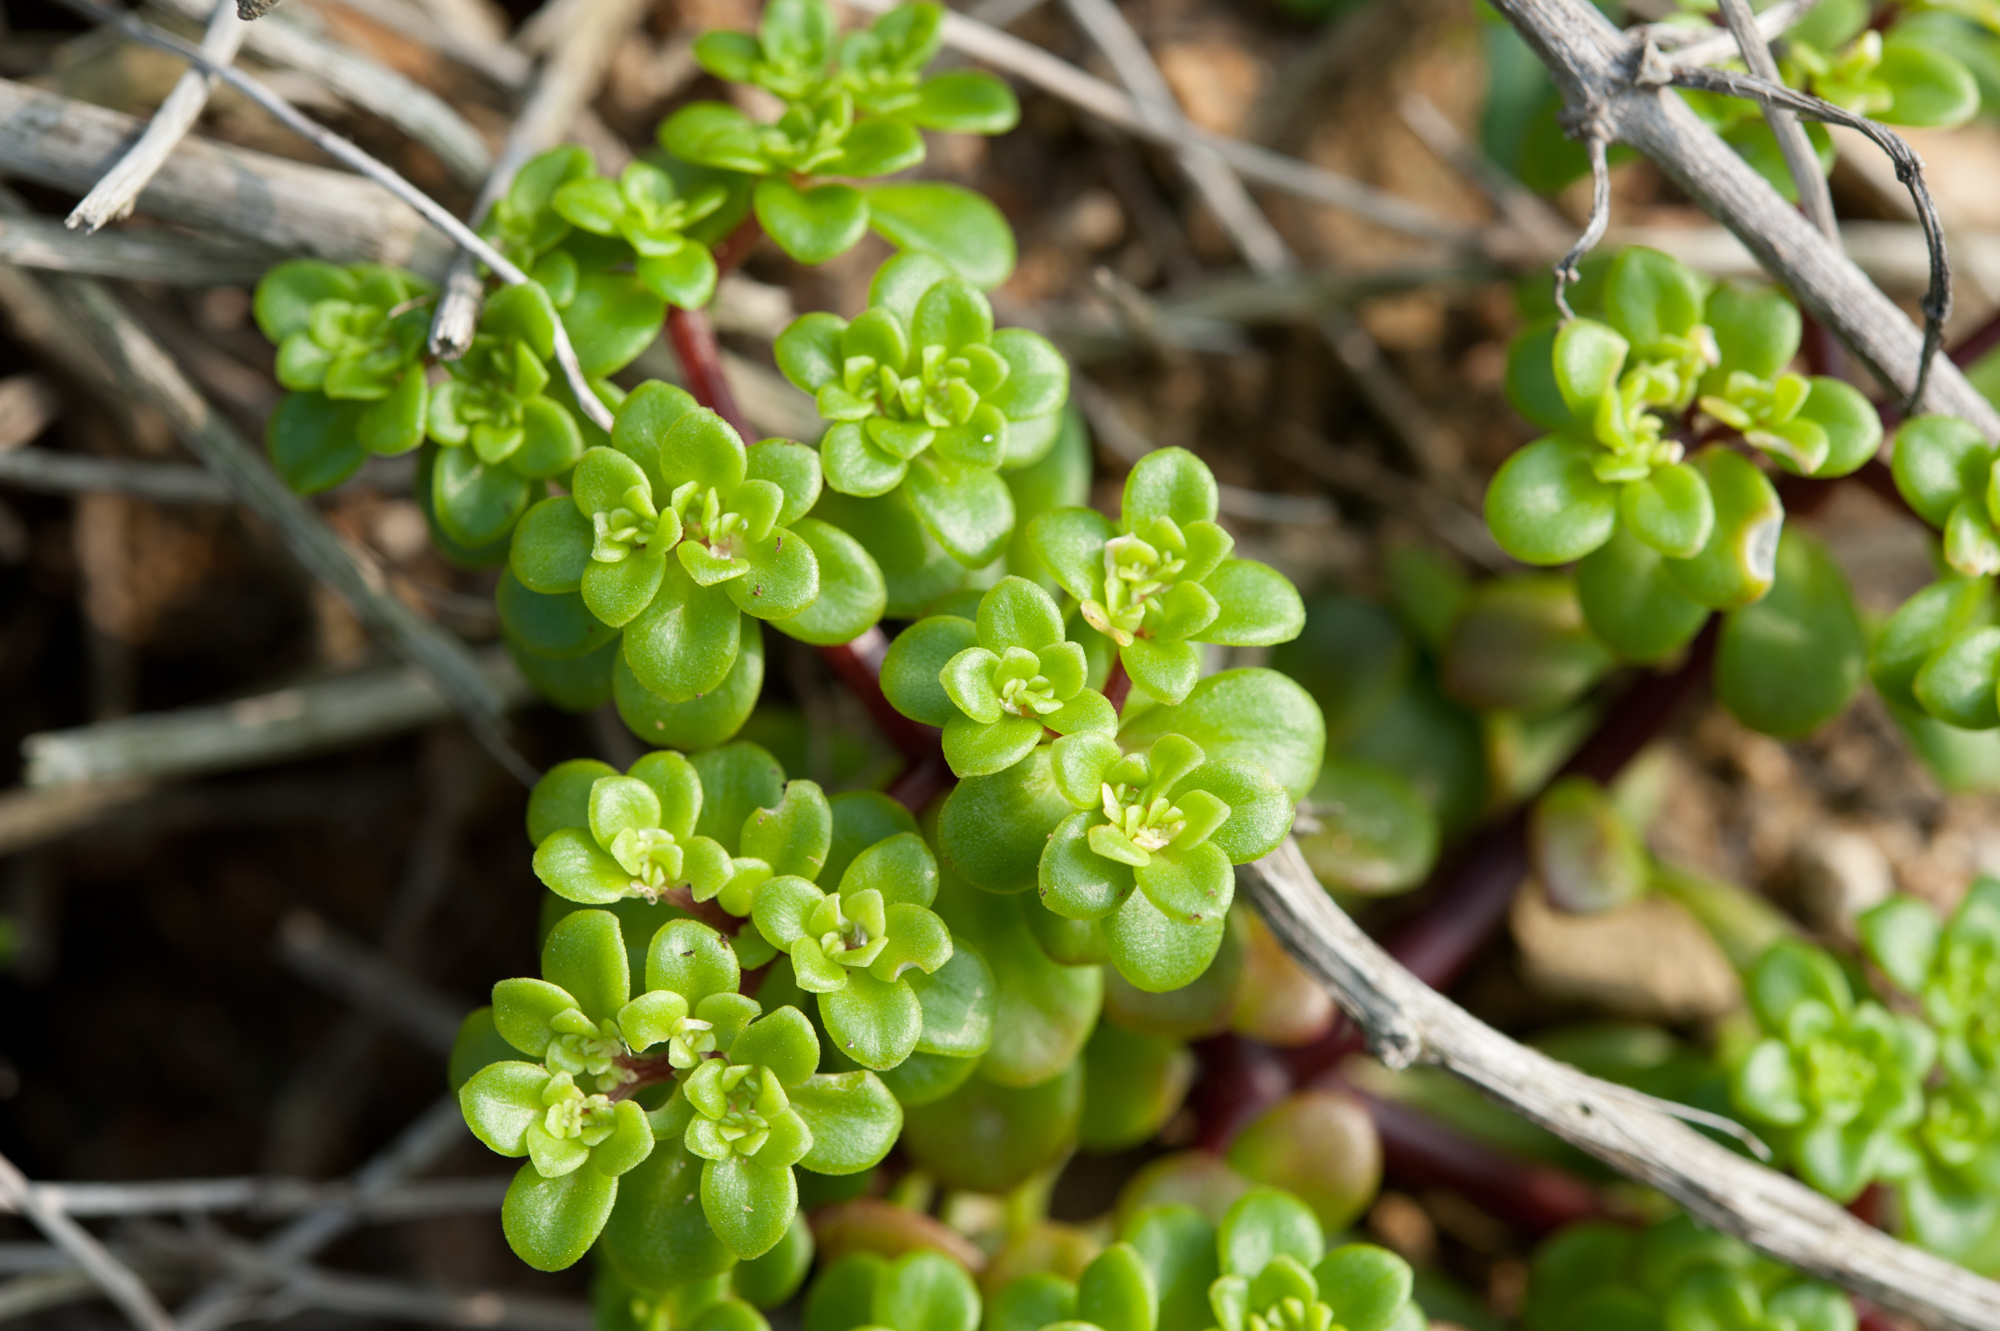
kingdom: Plantae
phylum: Tracheophyta
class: Magnoliopsida
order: Saxifragales
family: Crassulaceae
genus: Sedum
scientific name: Sedum formosanum
